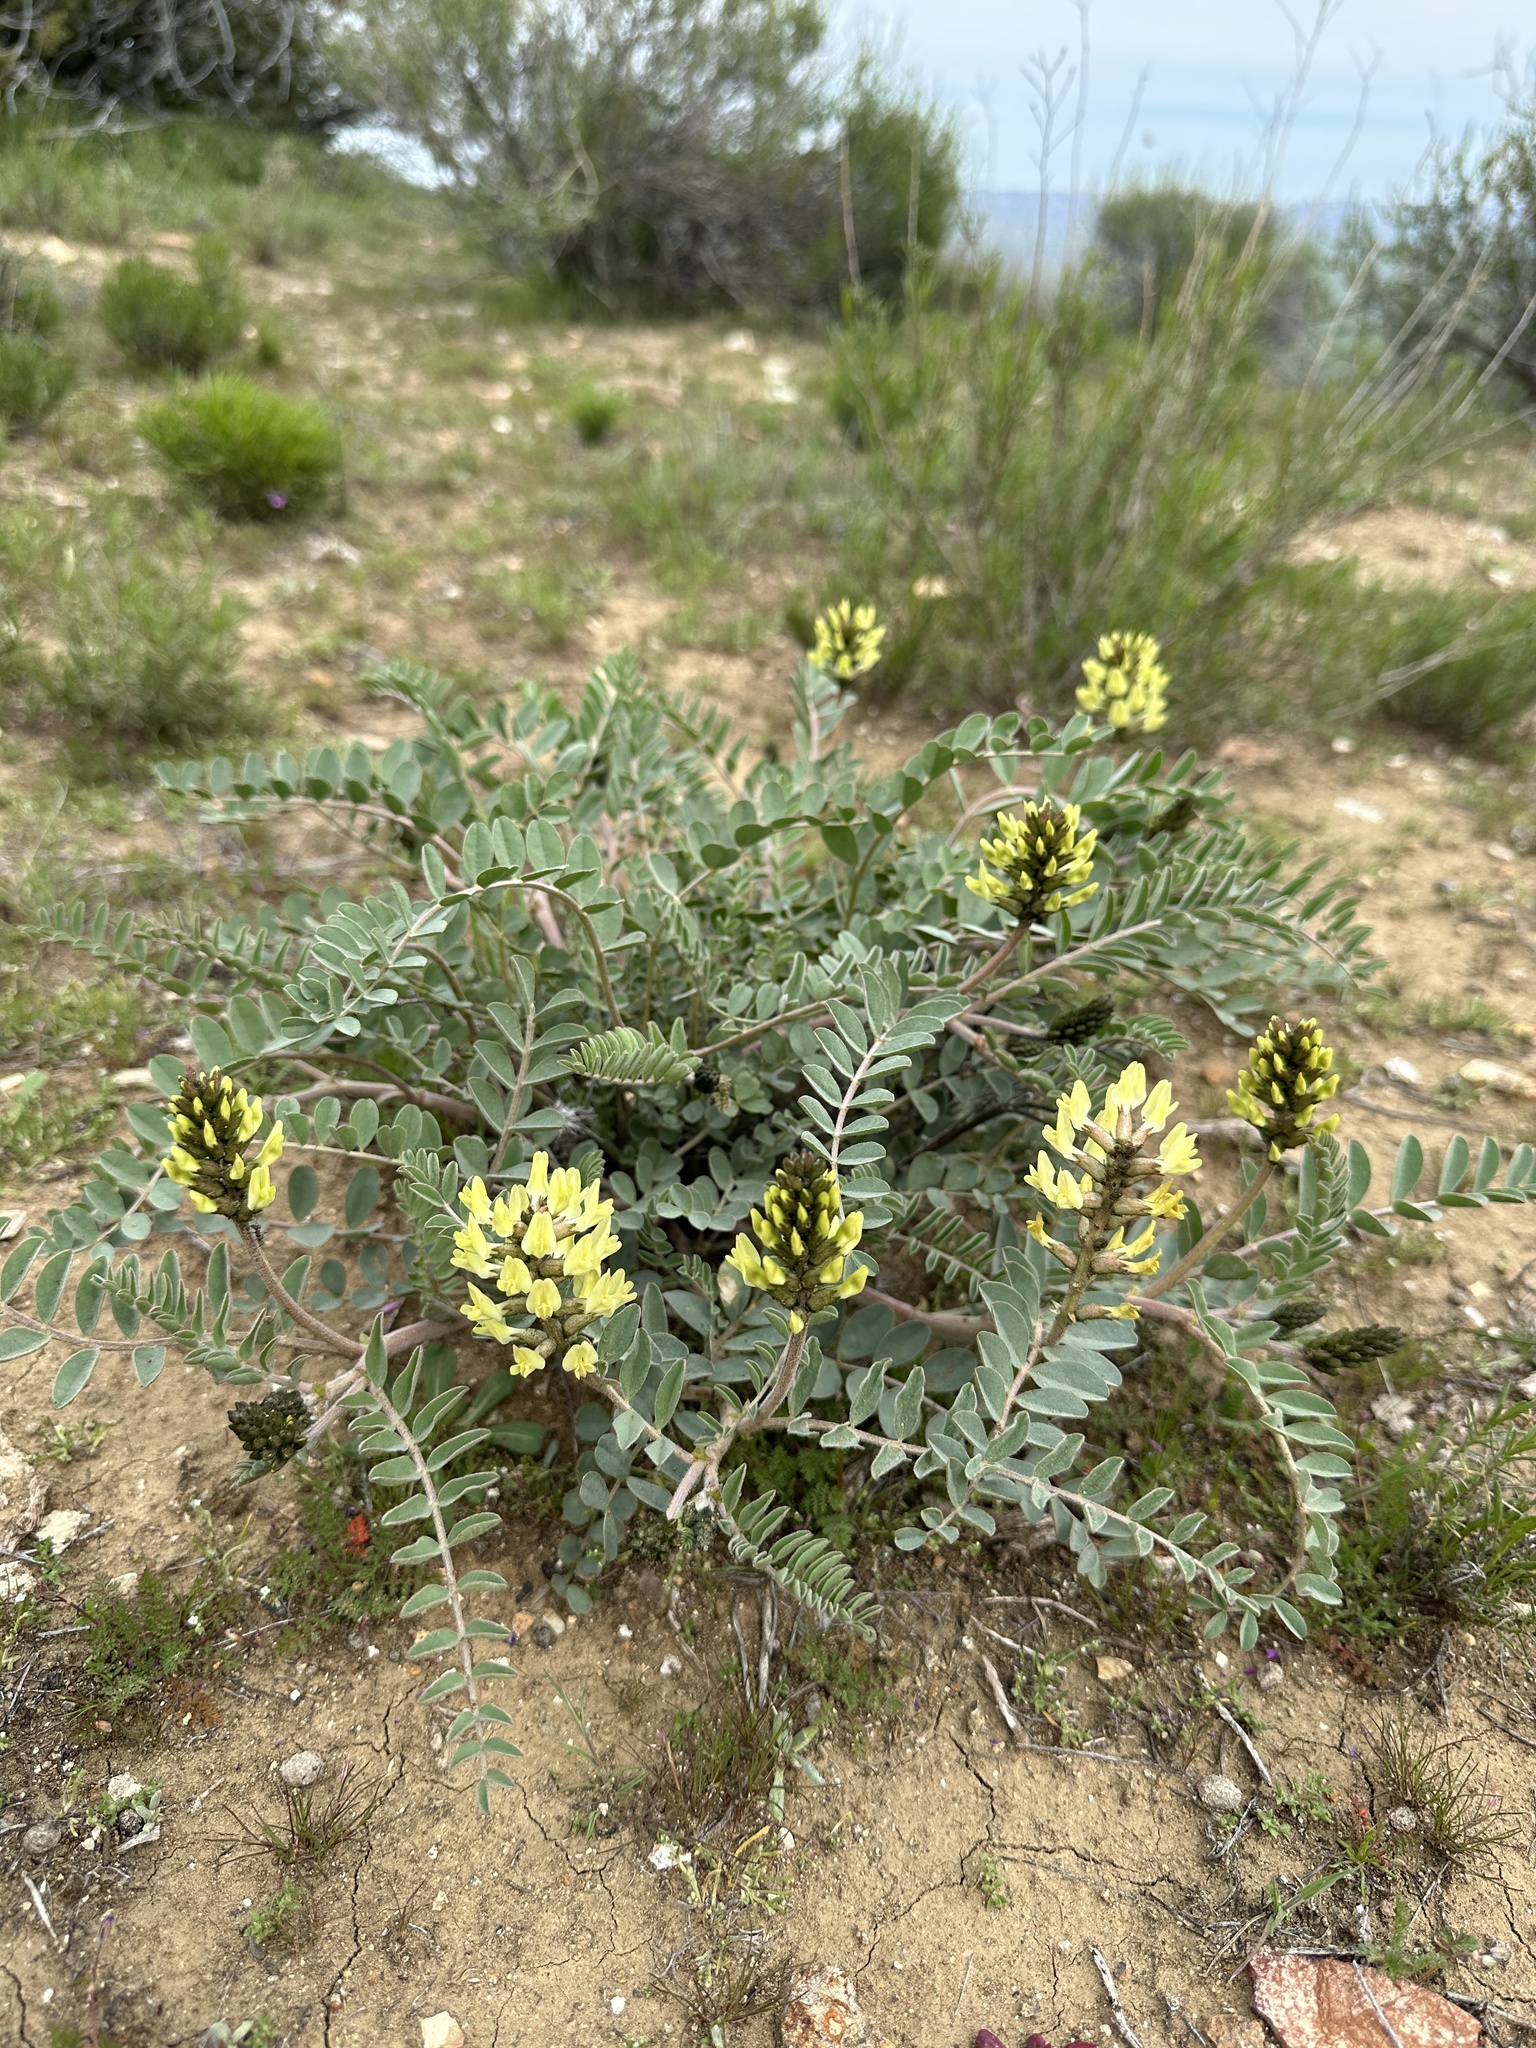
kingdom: Plantae
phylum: Tracheophyta
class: Magnoliopsida
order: Fabales
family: Fabaceae
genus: Astragalus
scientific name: Astragalus lentiginosus
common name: Freckled milkvetch
